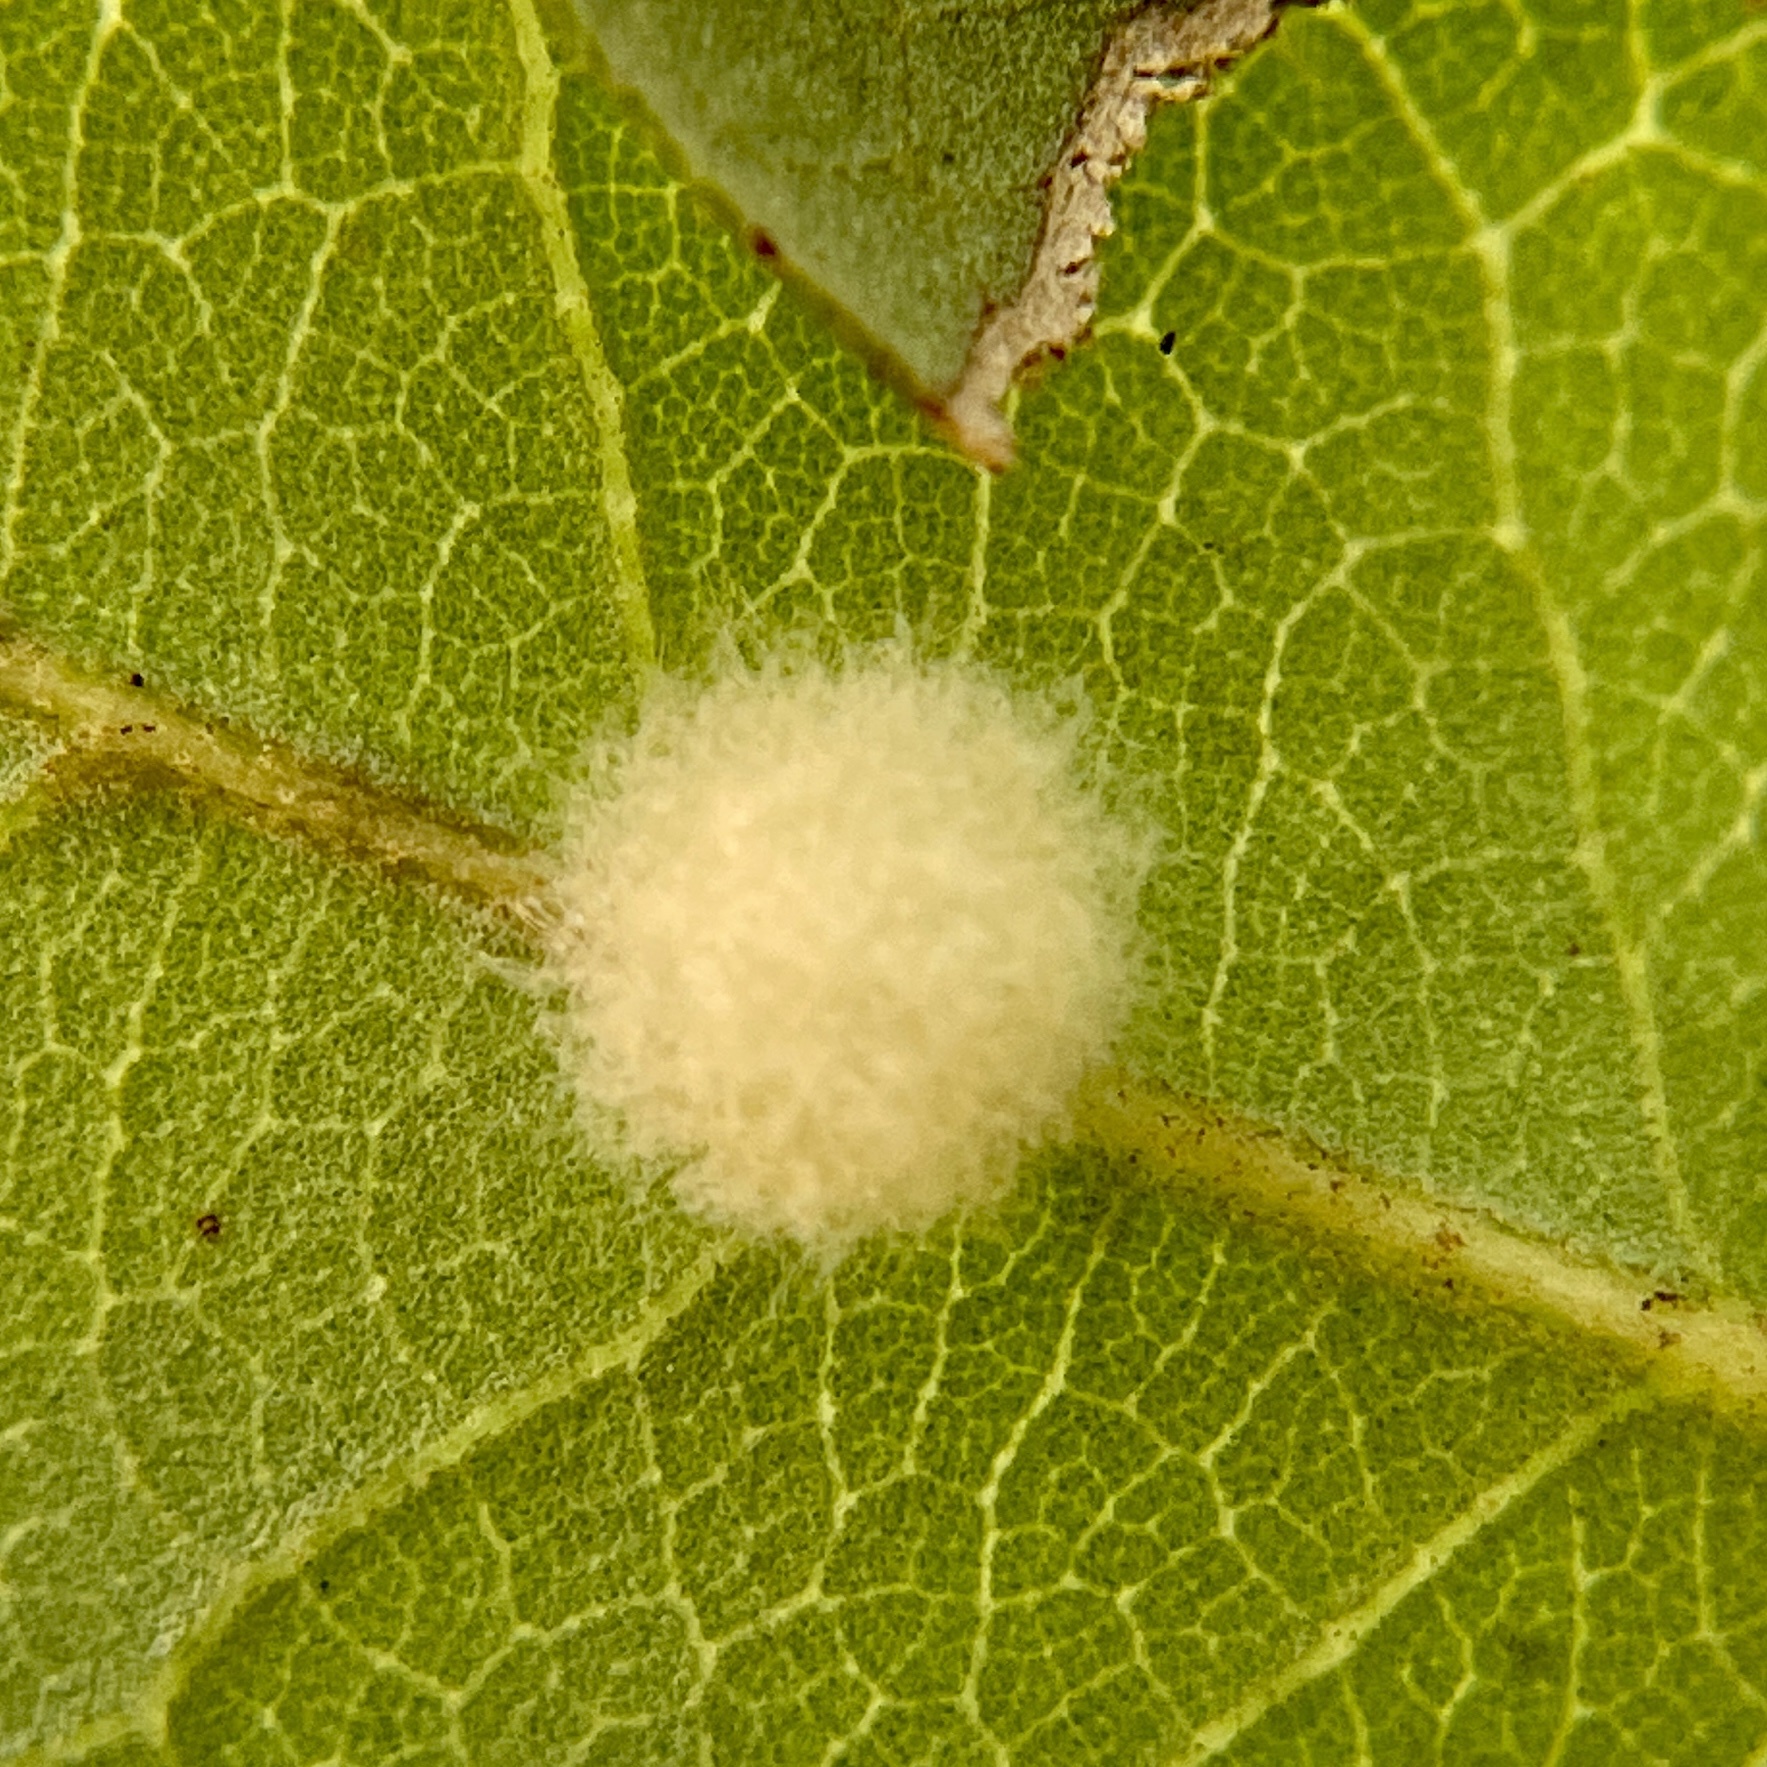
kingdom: Animalia
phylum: Arthropoda
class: Insecta
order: Hymenoptera
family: Cynipidae
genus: Andricus
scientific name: Andricus Druon quercuslanigerum
